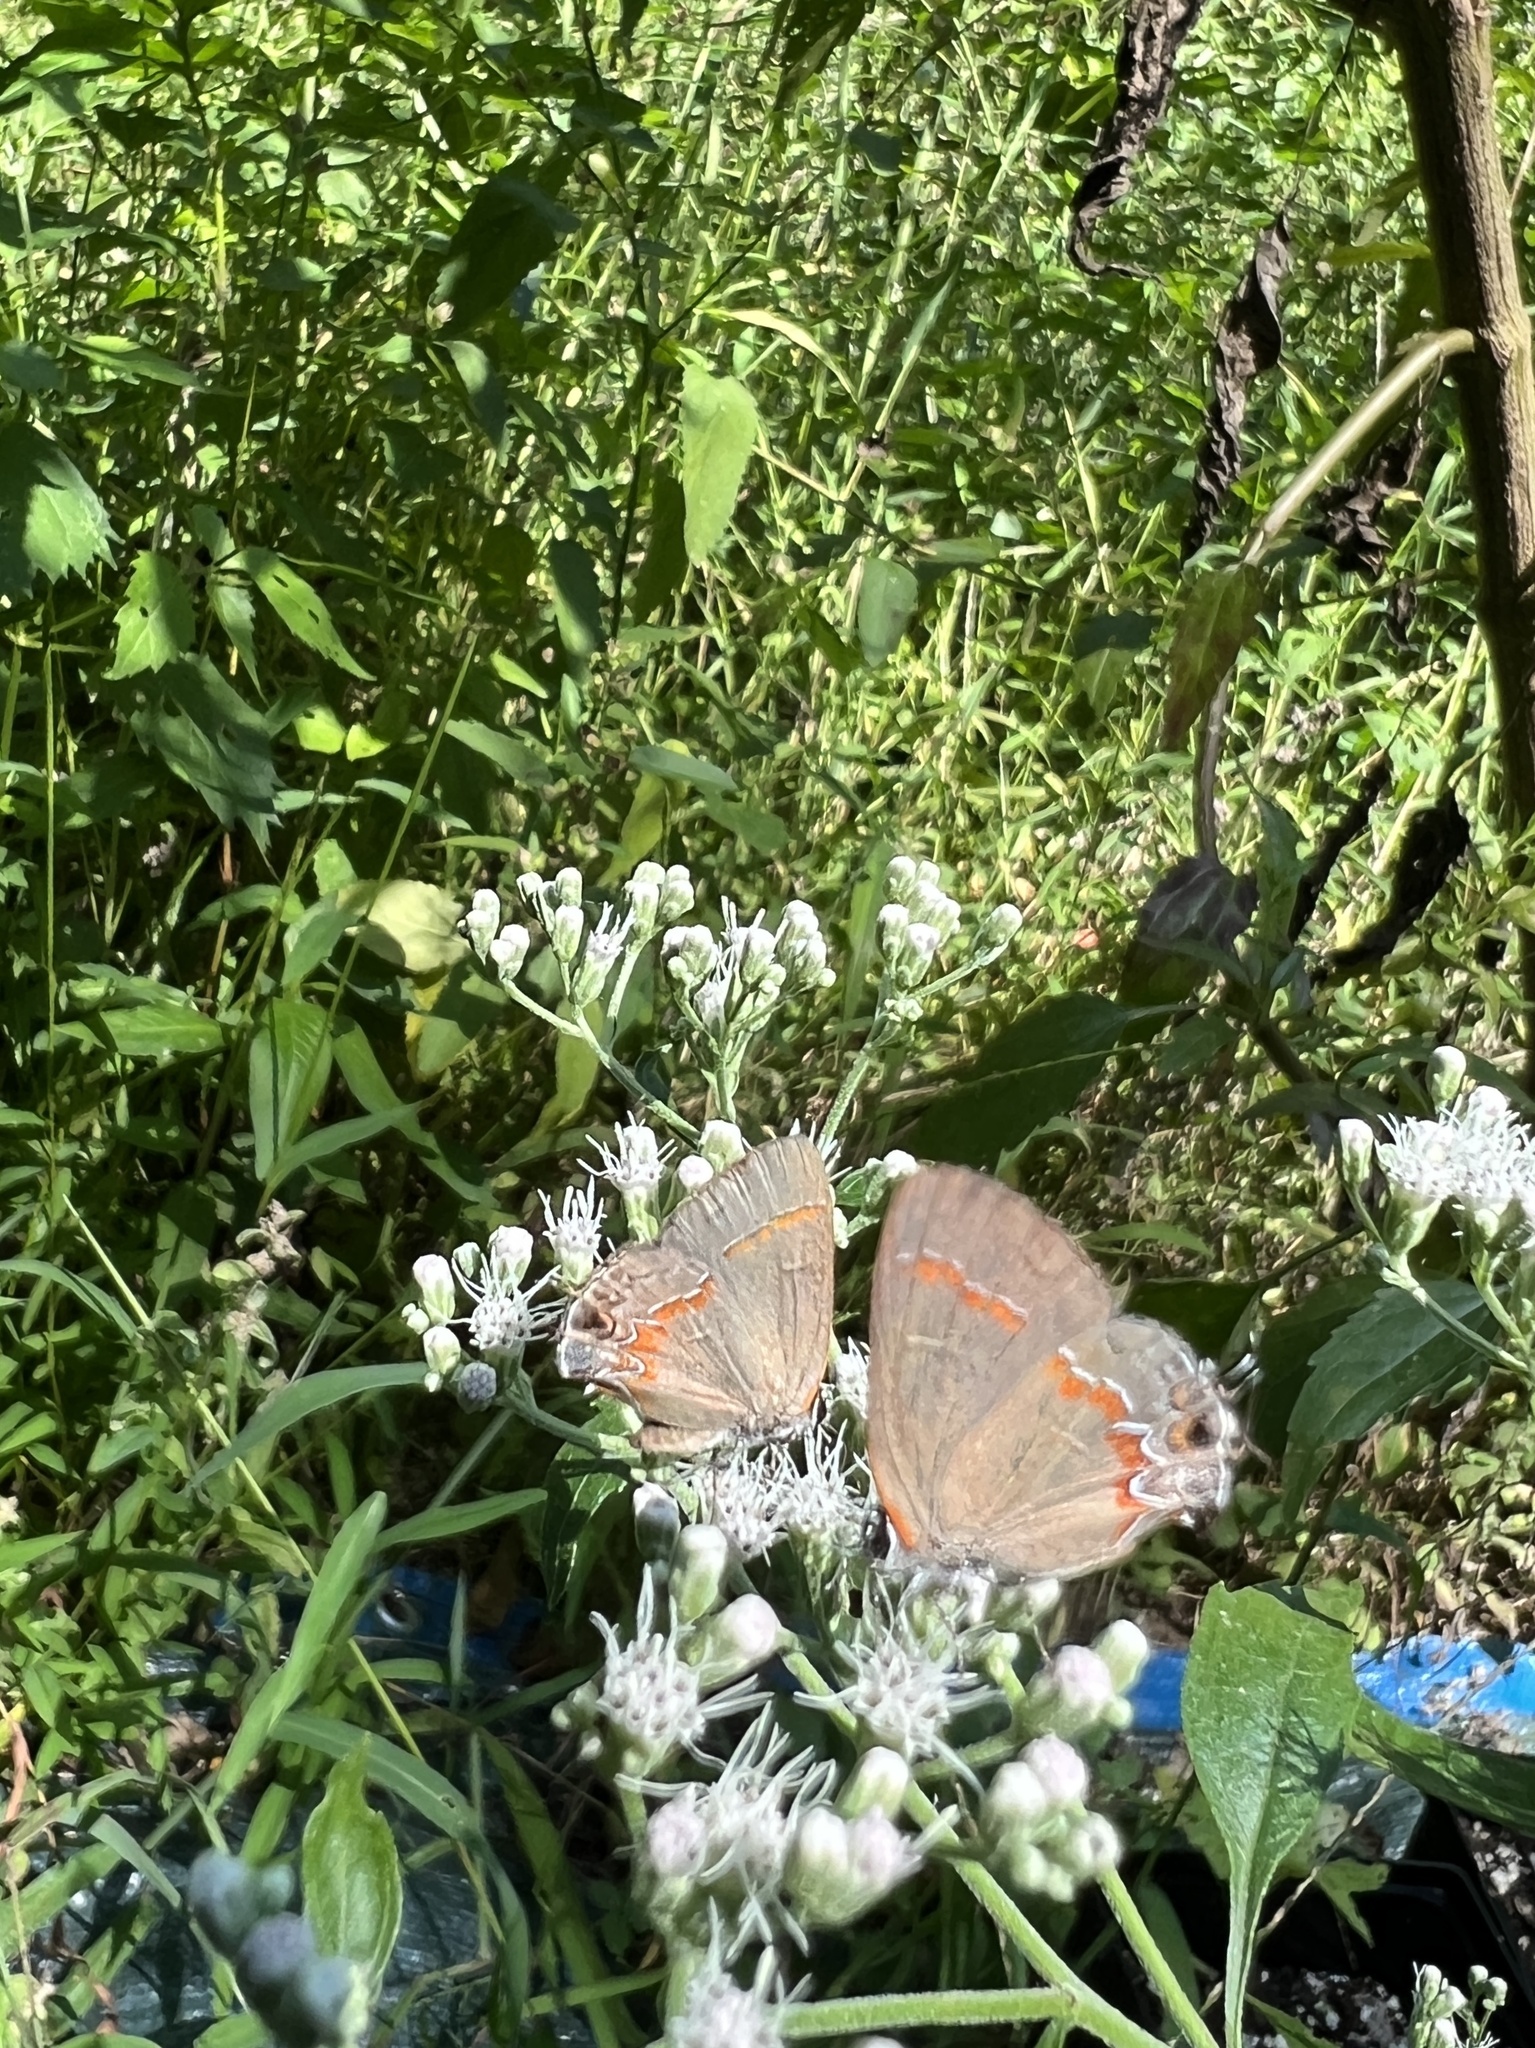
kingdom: Animalia
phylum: Arthropoda
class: Insecta
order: Lepidoptera
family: Lycaenidae
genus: Calycopis
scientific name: Calycopis cecrops
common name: Red-banded hairstreak
